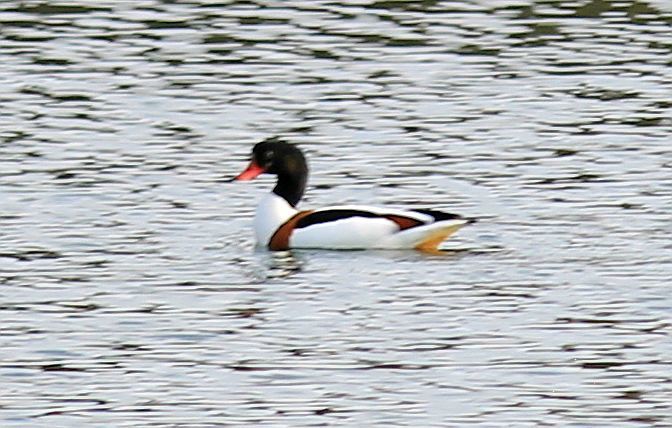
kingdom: Animalia
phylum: Chordata
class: Aves
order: Anseriformes
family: Anatidae
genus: Tadorna
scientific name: Tadorna tadorna
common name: Common shelduck
